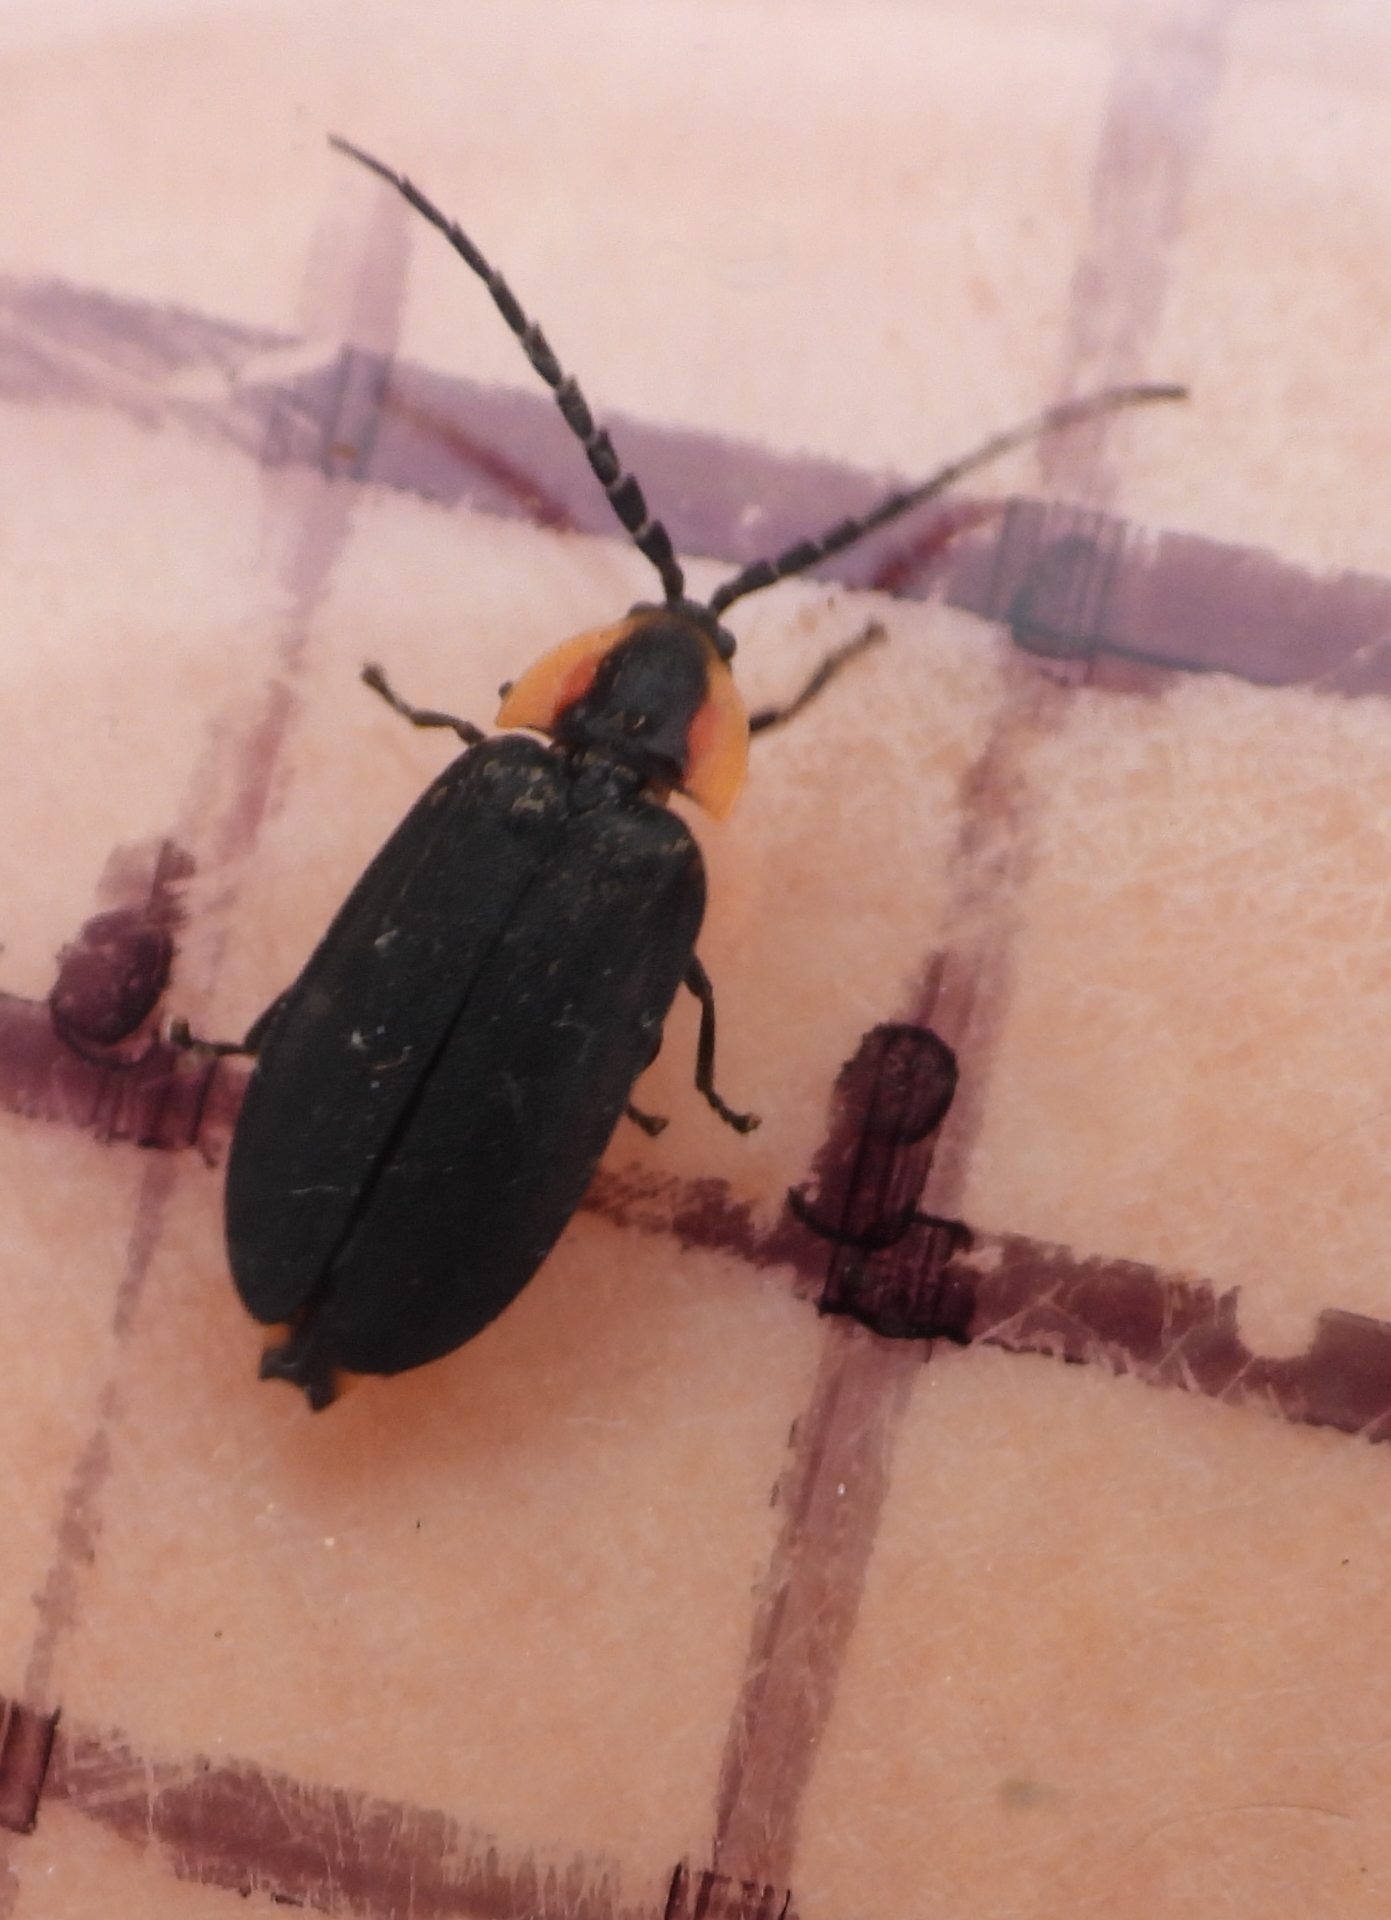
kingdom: Animalia
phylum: Arthropoda
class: Insecta
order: Coleoptera
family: Lampyridae
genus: Lucidota
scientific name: Lucidota atra
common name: Black firefly
